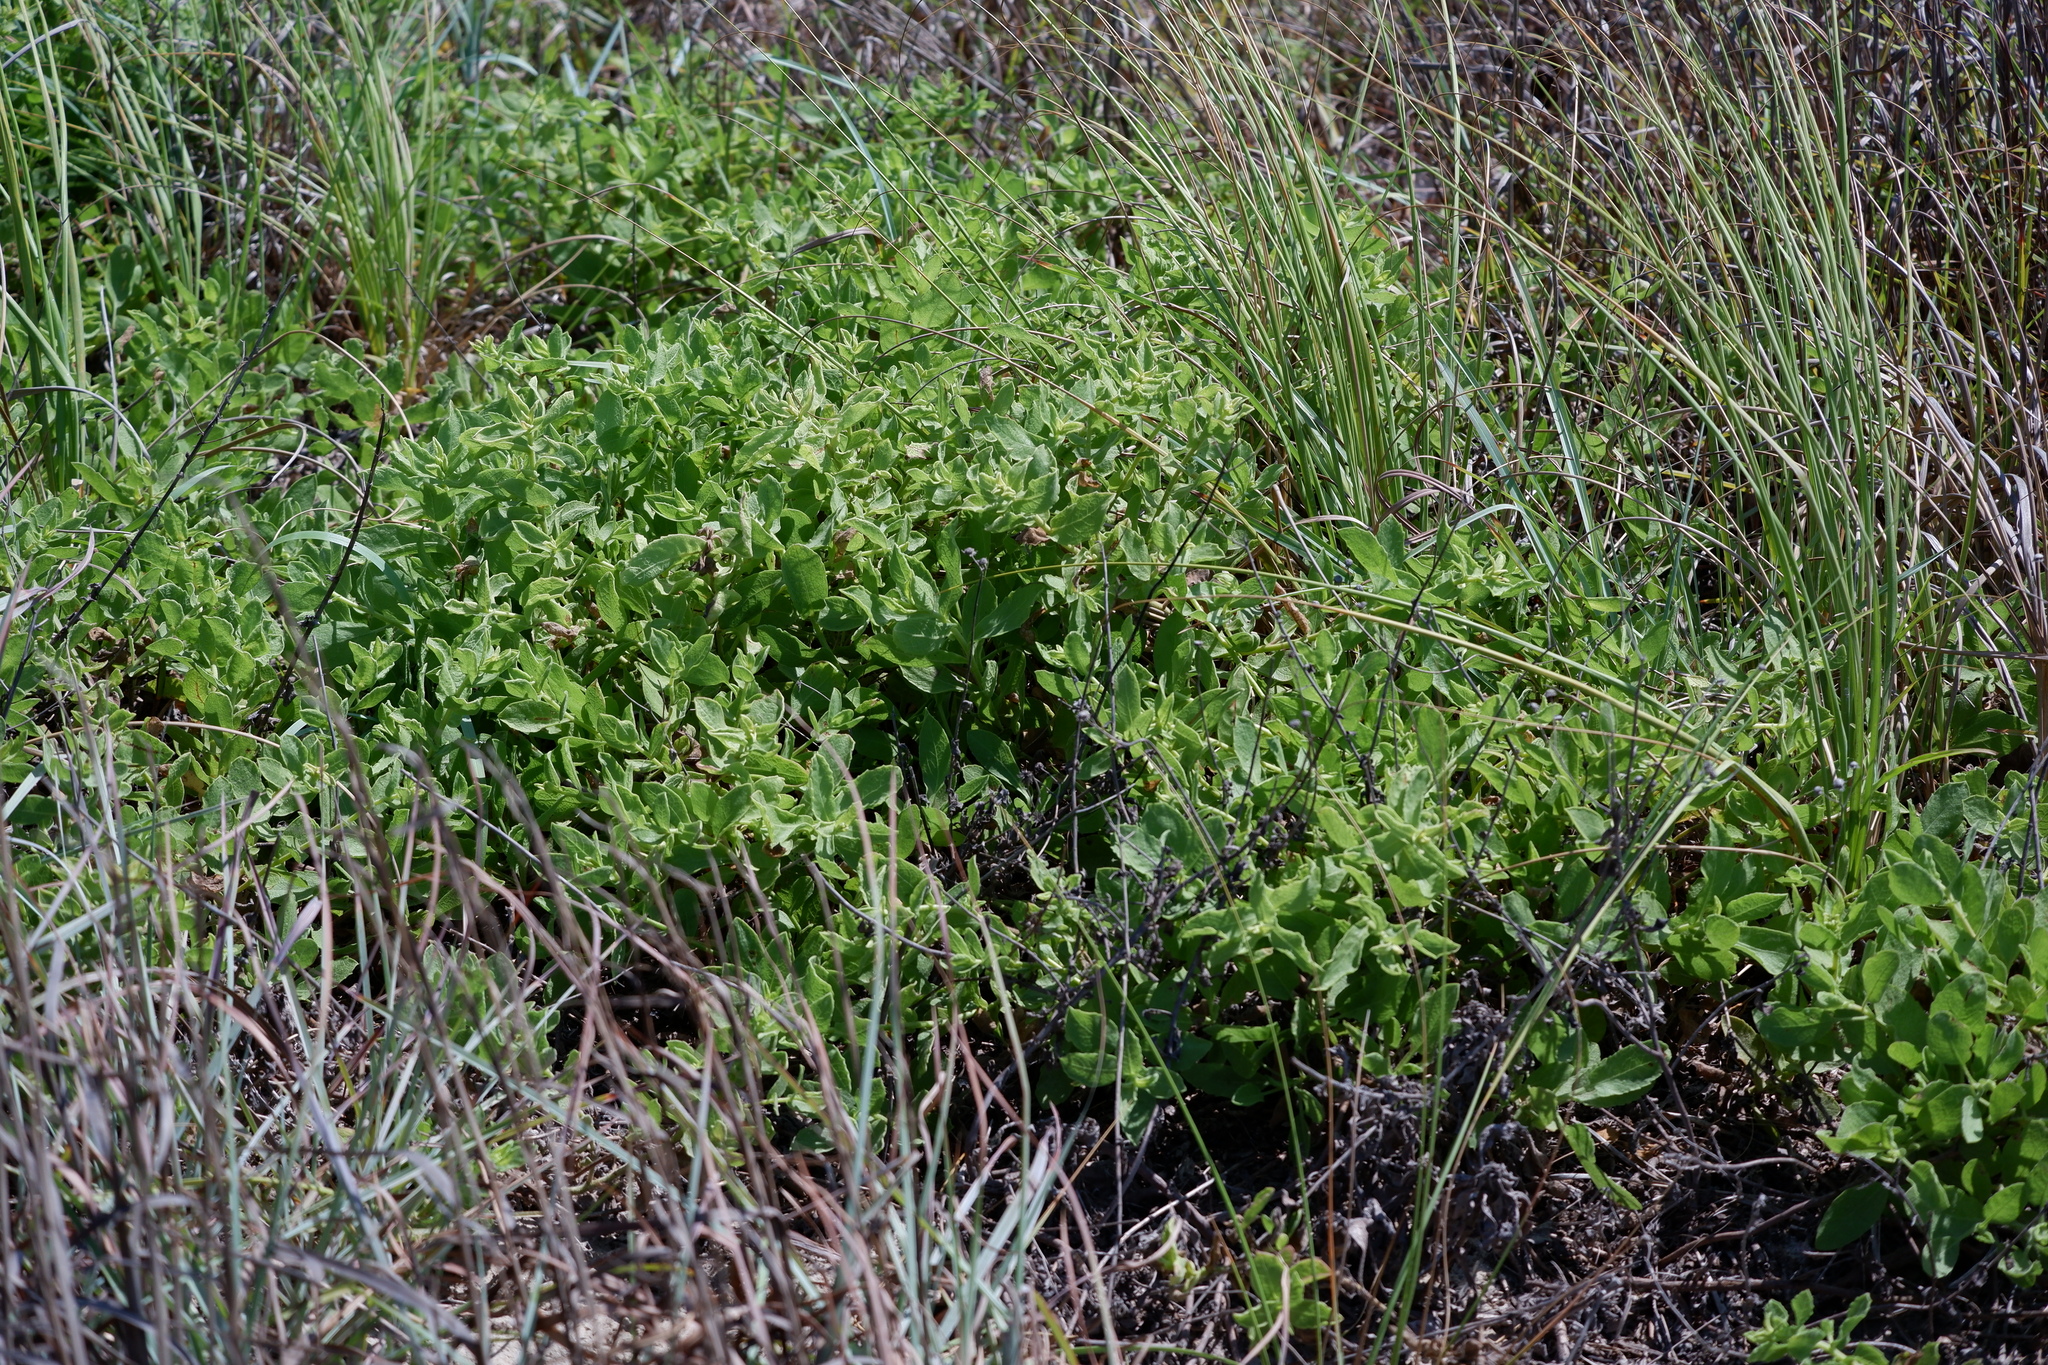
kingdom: Plantae
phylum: Tracheophyta
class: Magnoliopsida
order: Asterales
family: Asteraceae
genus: Heterotheca
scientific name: Heterotheca subaxillaris
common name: Camphorweed
